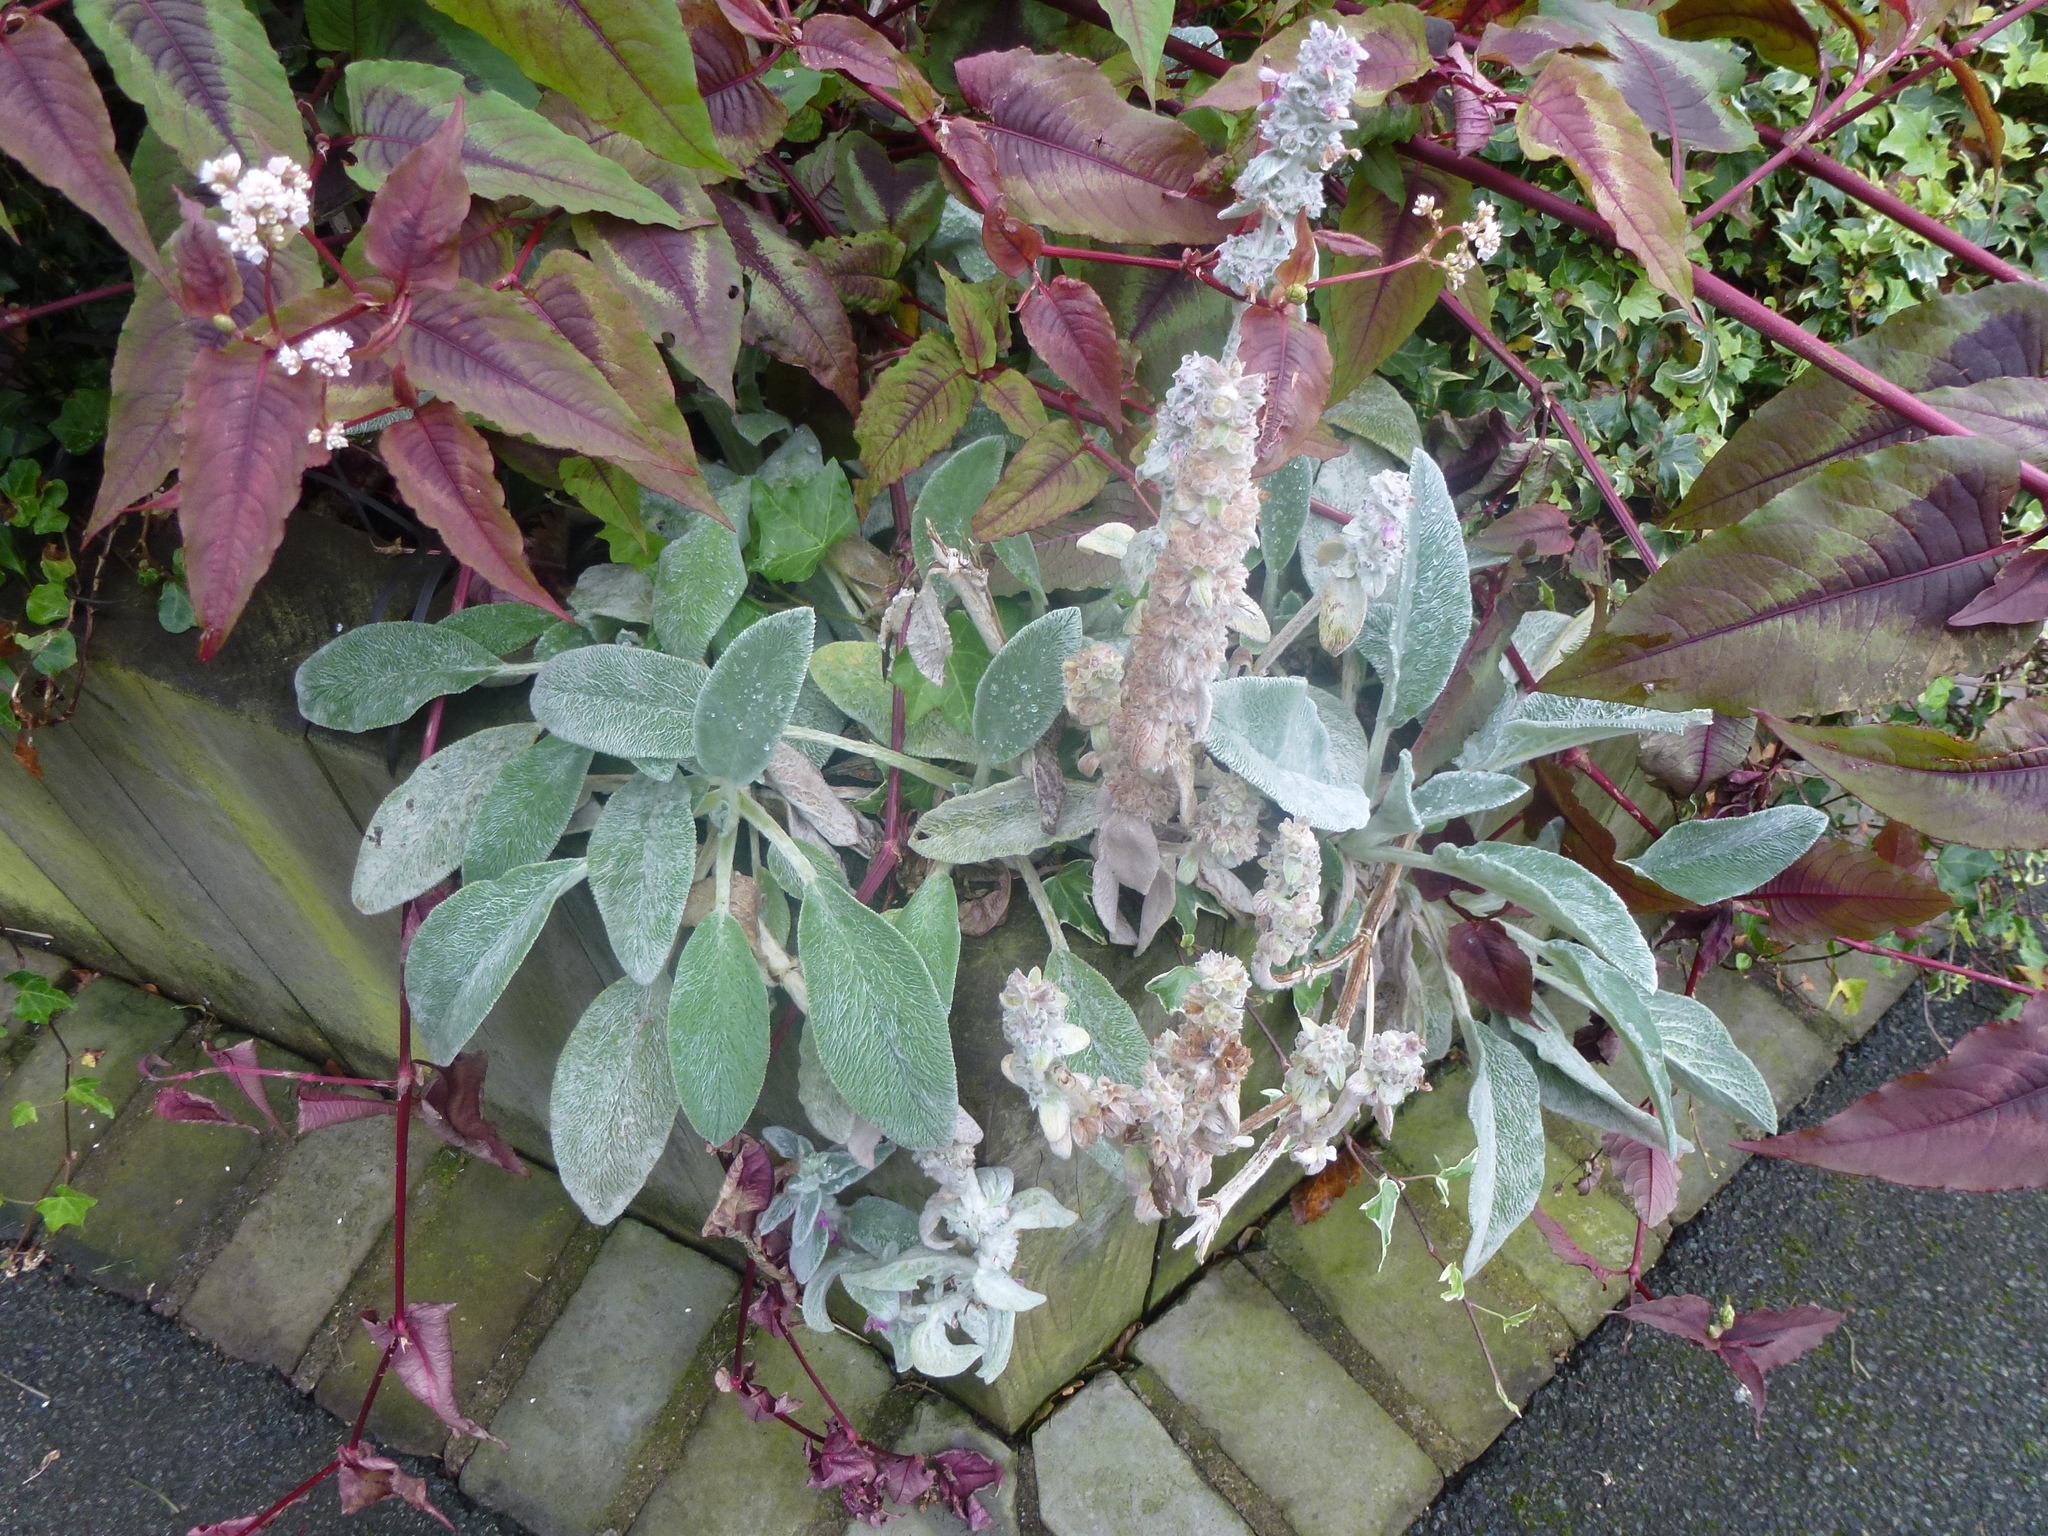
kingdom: Plantae
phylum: Tracheophyta
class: Magnoliopsida
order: Lamiales
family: Lamiaceae
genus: Stachys
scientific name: Stachys byzantina
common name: Lamb's-ear
